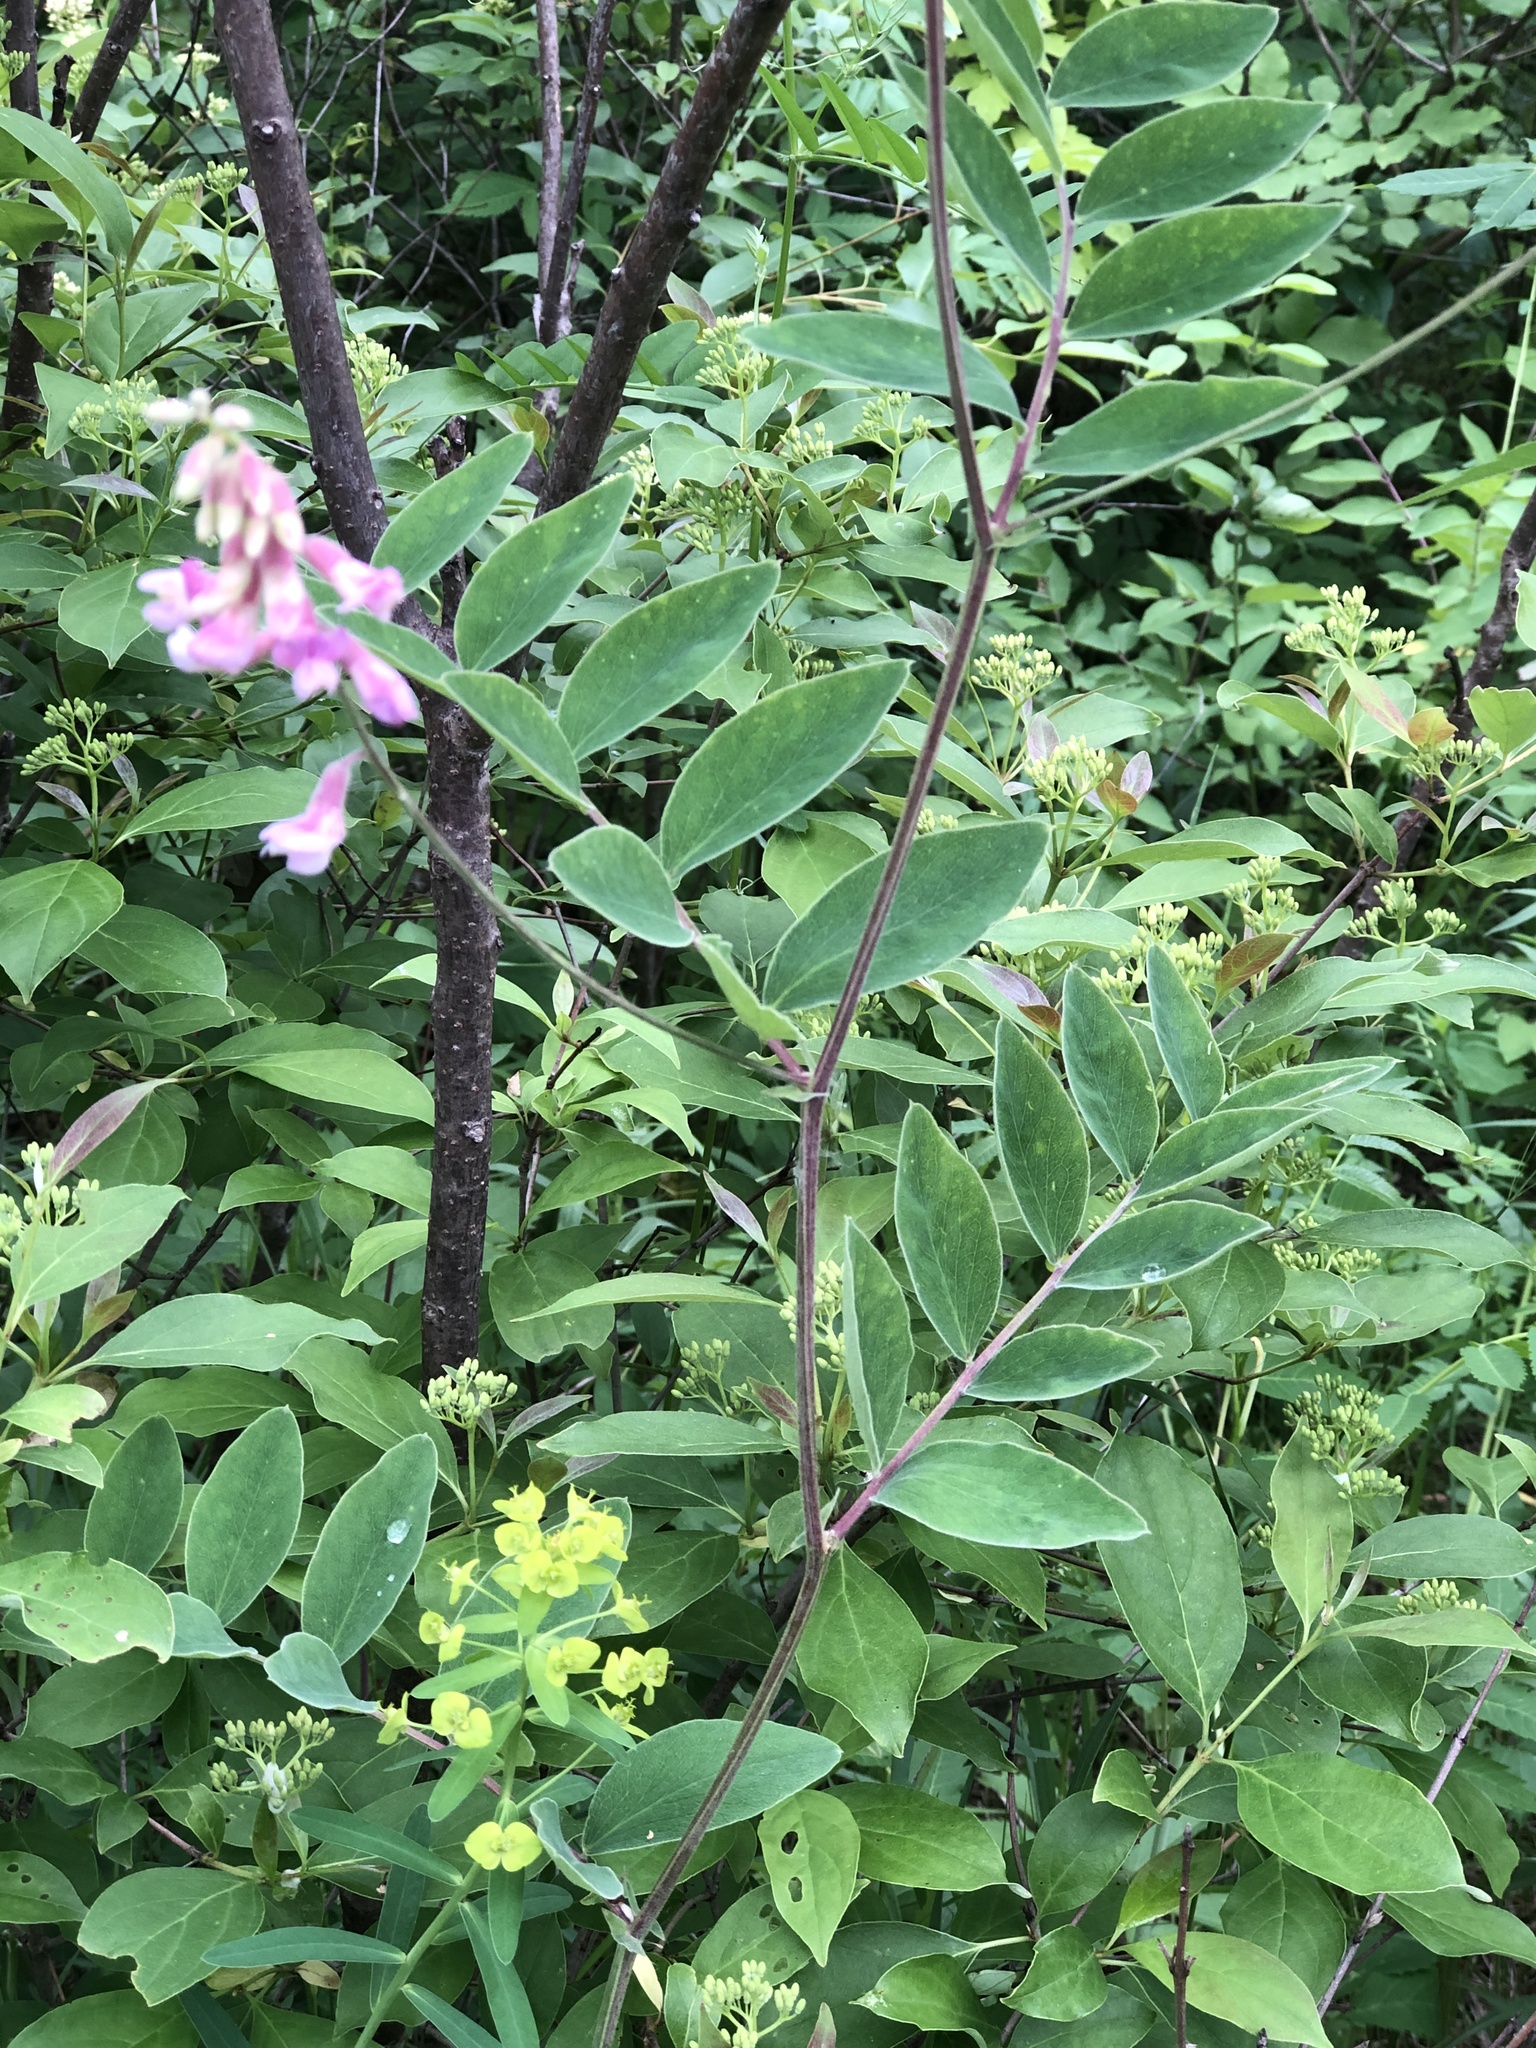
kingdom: Plantae
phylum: Tracheophyta
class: Magnoliopsida
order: Fabales
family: Fabaceae
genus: Lathyrus
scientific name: Lathyrus venosus
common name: Forest-pea
